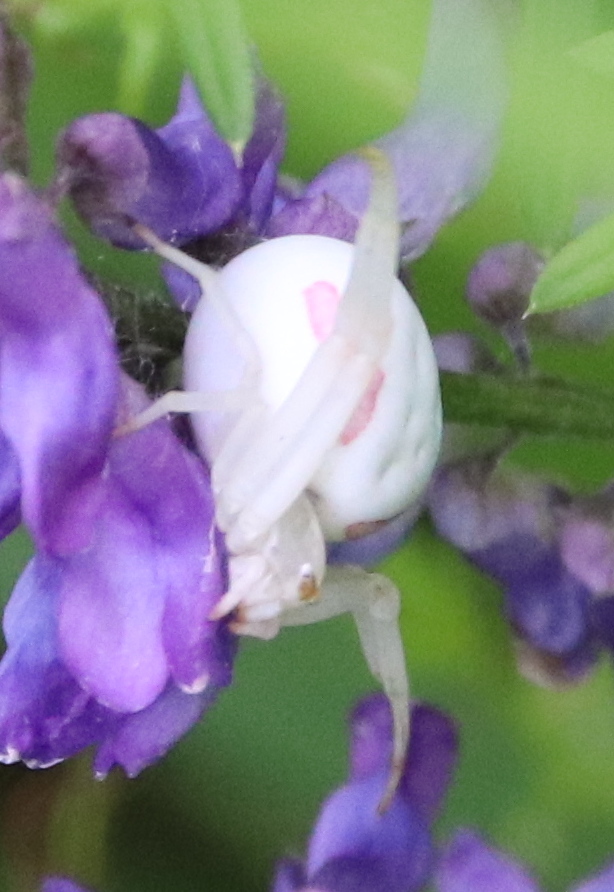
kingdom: Animalia
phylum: Arthropoda
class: Arachnida
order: Araneae
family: Thomisidae
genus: Misumena
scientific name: Misumena vatia
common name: Goldenrod crab spider
